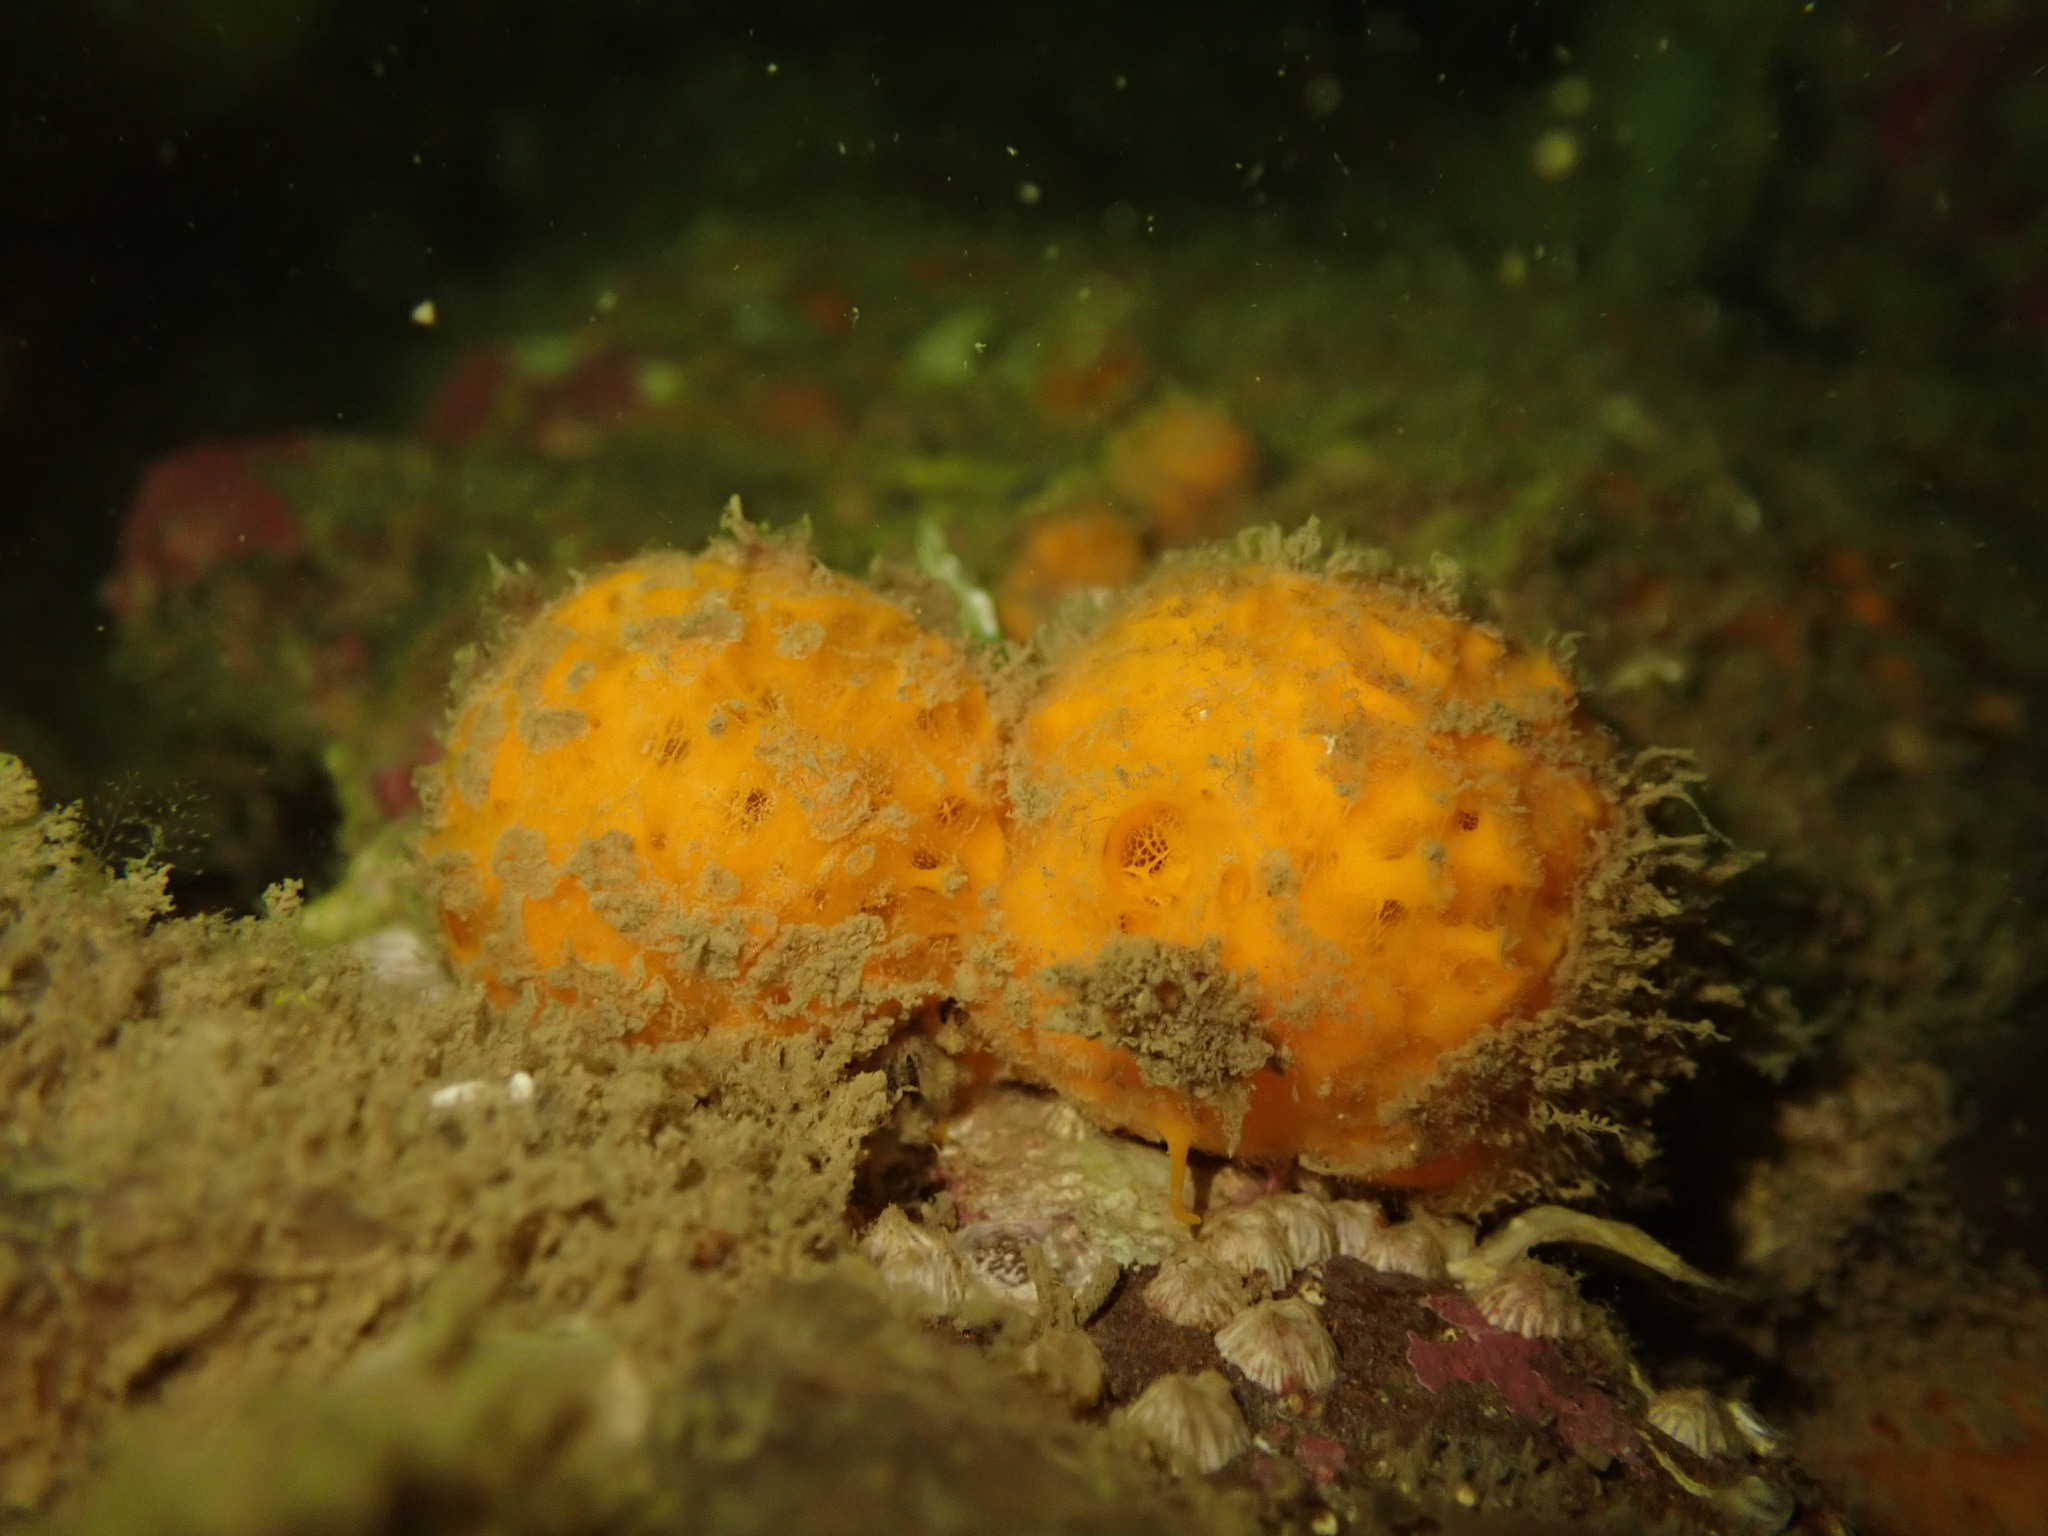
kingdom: Animalia
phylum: Porifera
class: Demospongiae
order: Tethyida
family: Tethyidae
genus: Tethya
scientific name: Tethya burtoni
